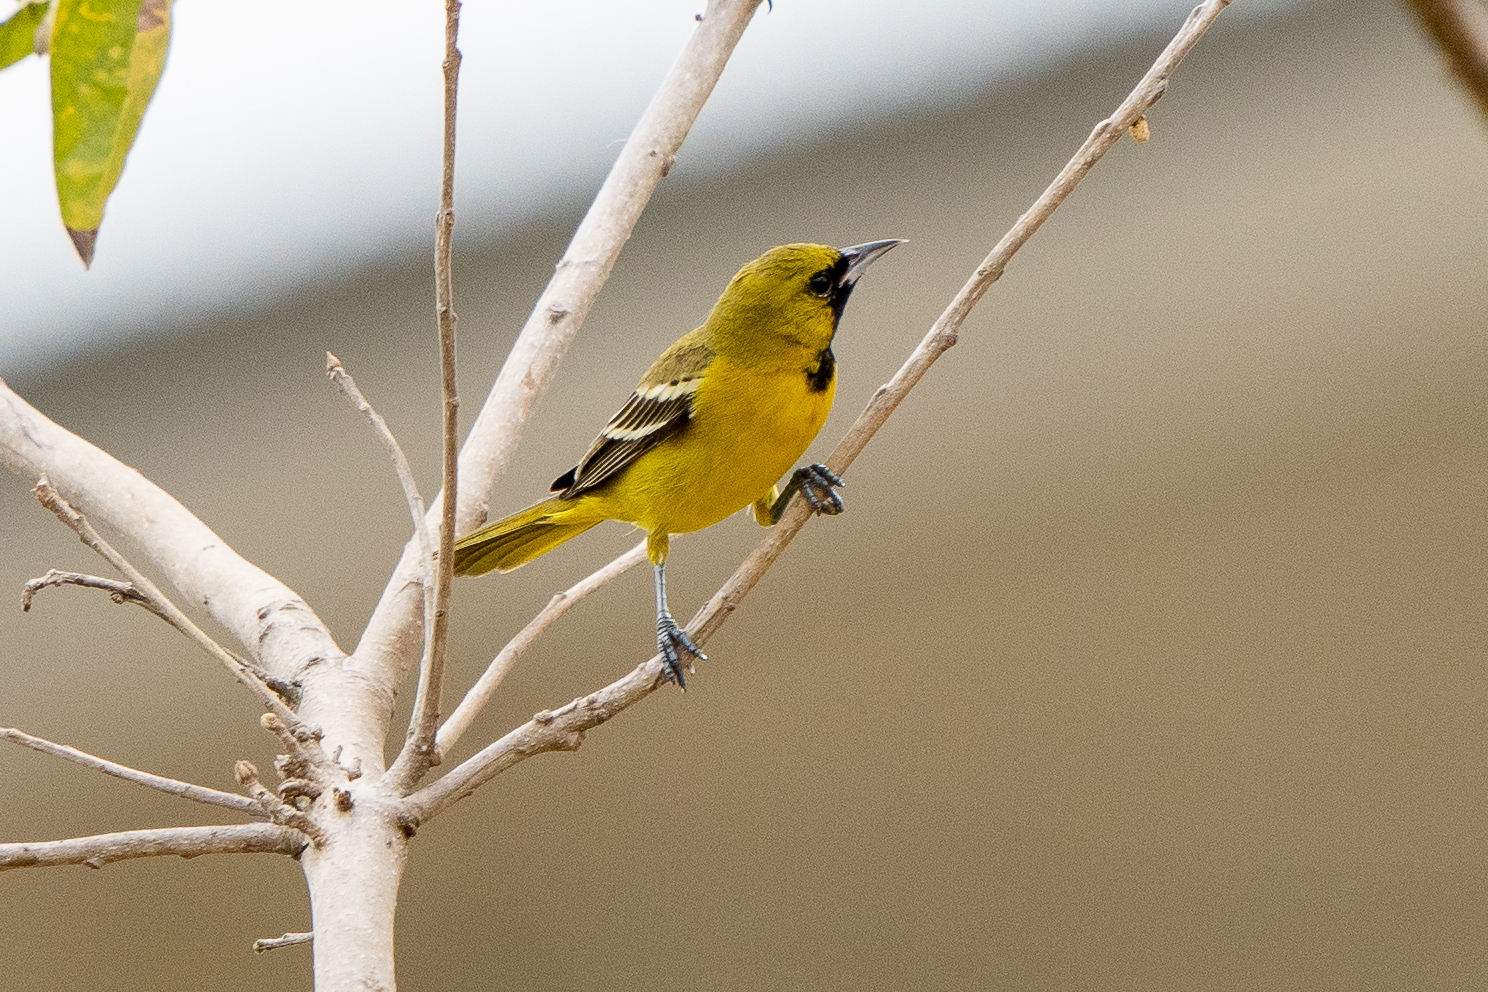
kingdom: Animalia
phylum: Chordata
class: Aves
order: Passeriformes
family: Icteridae
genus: Icterus
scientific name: Icterus spurius
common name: Orchard oriole
